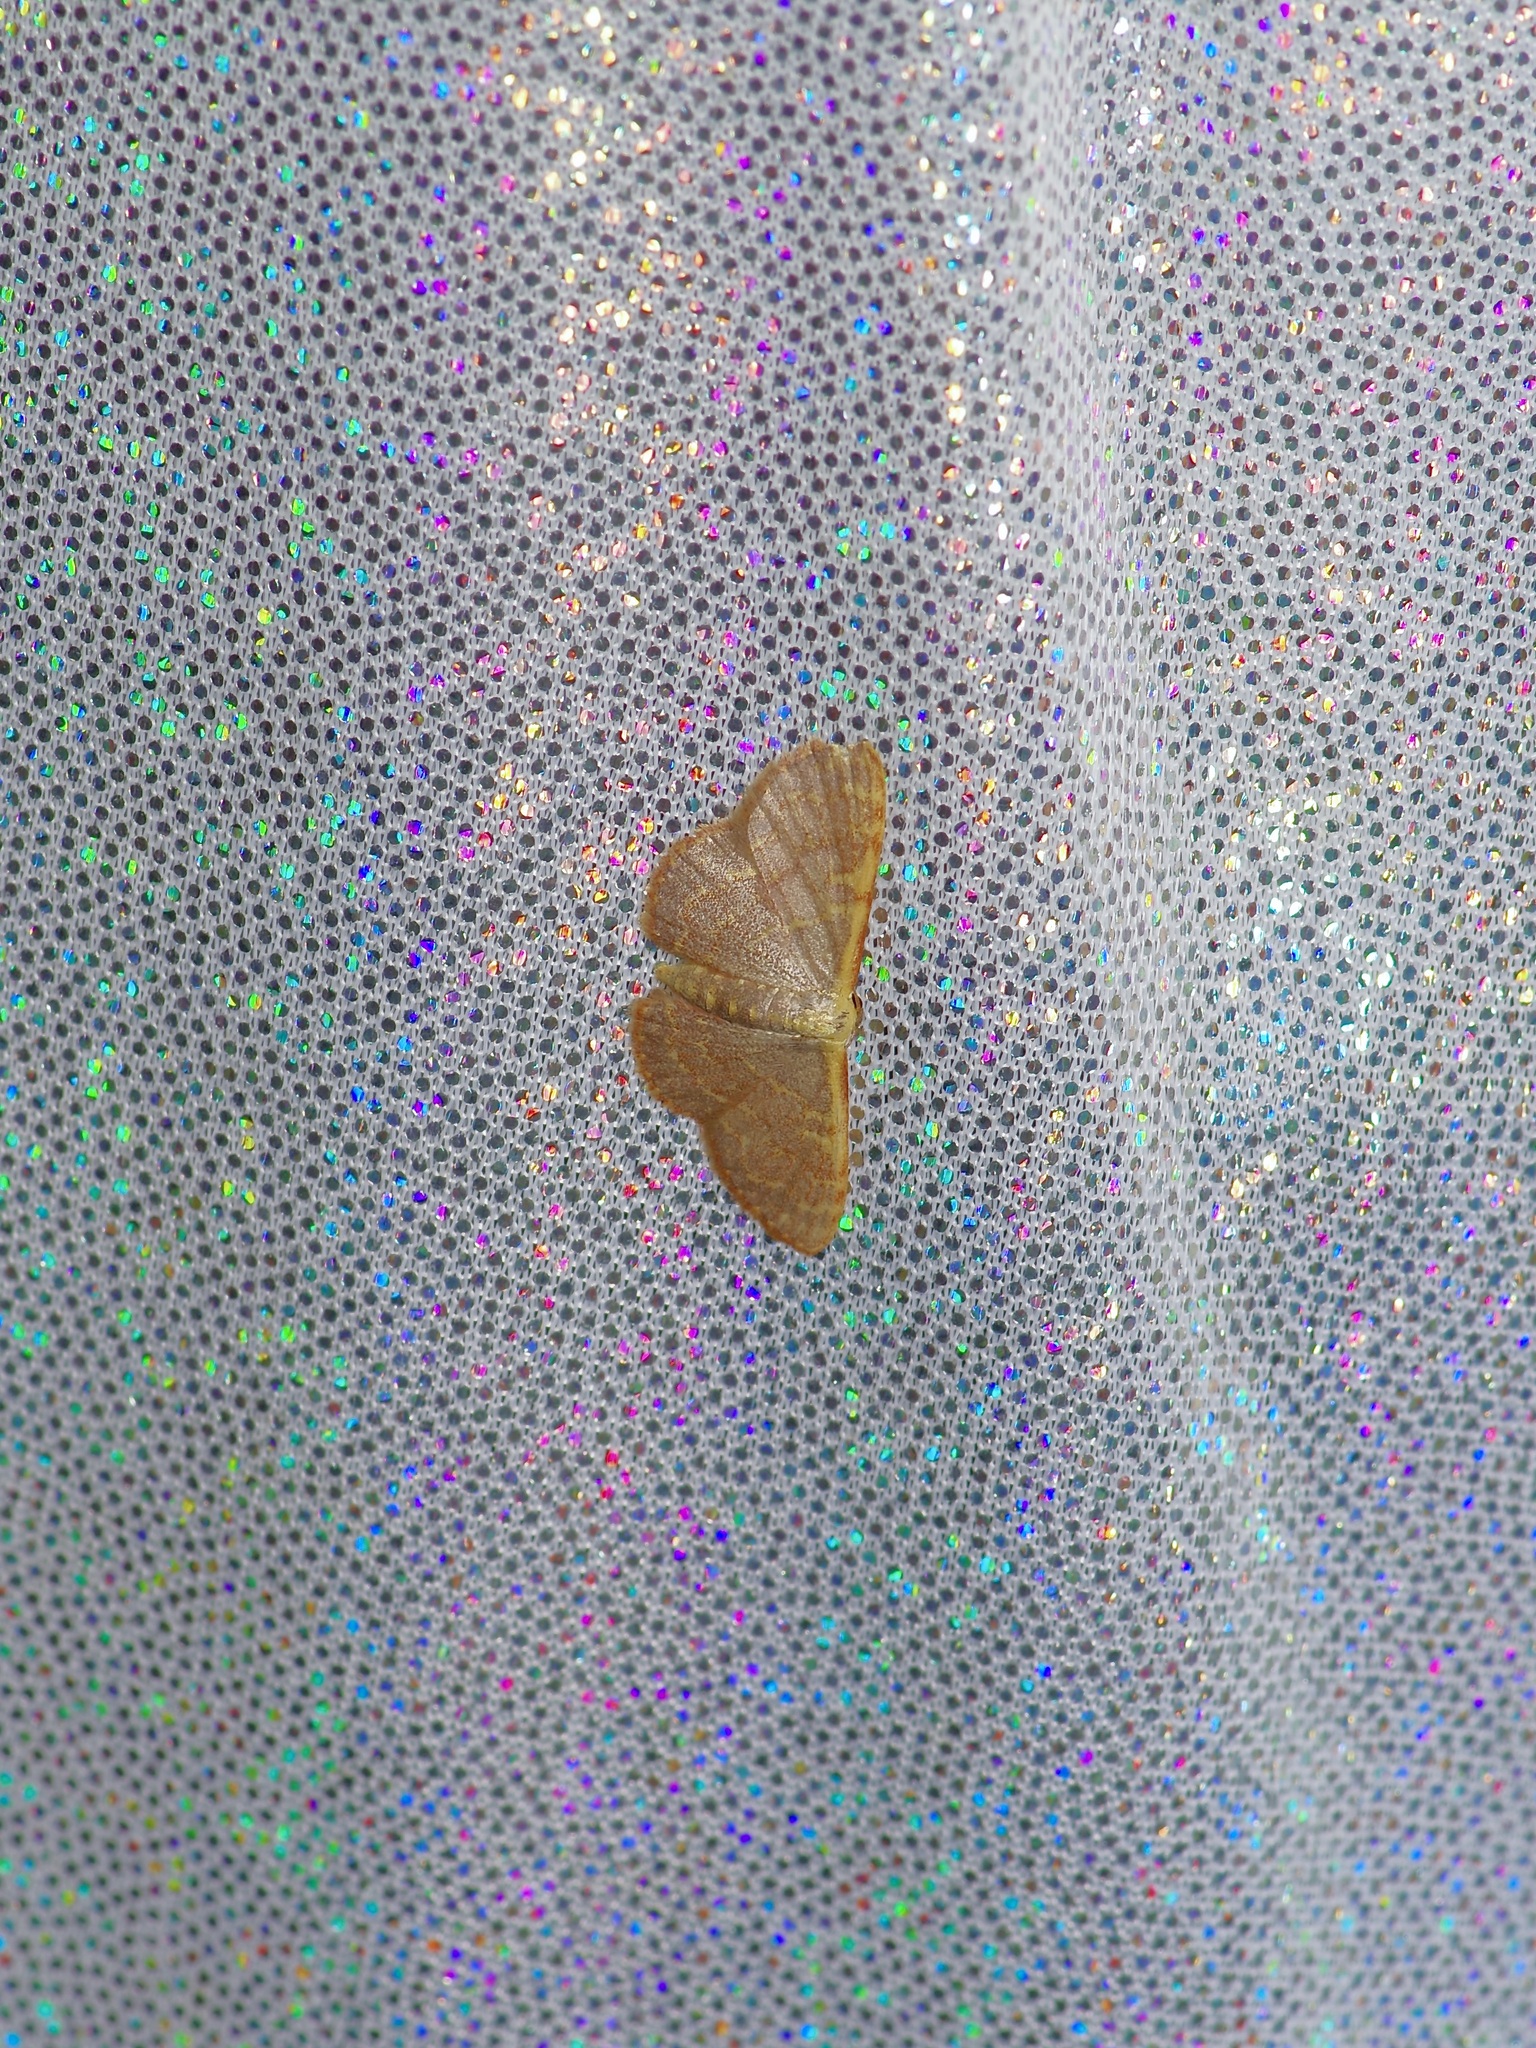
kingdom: Animalia
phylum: Arthropoda
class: Insecta
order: Lepidoptera
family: Geometridae
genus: Leptostales
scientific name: Leptostales pannaria
